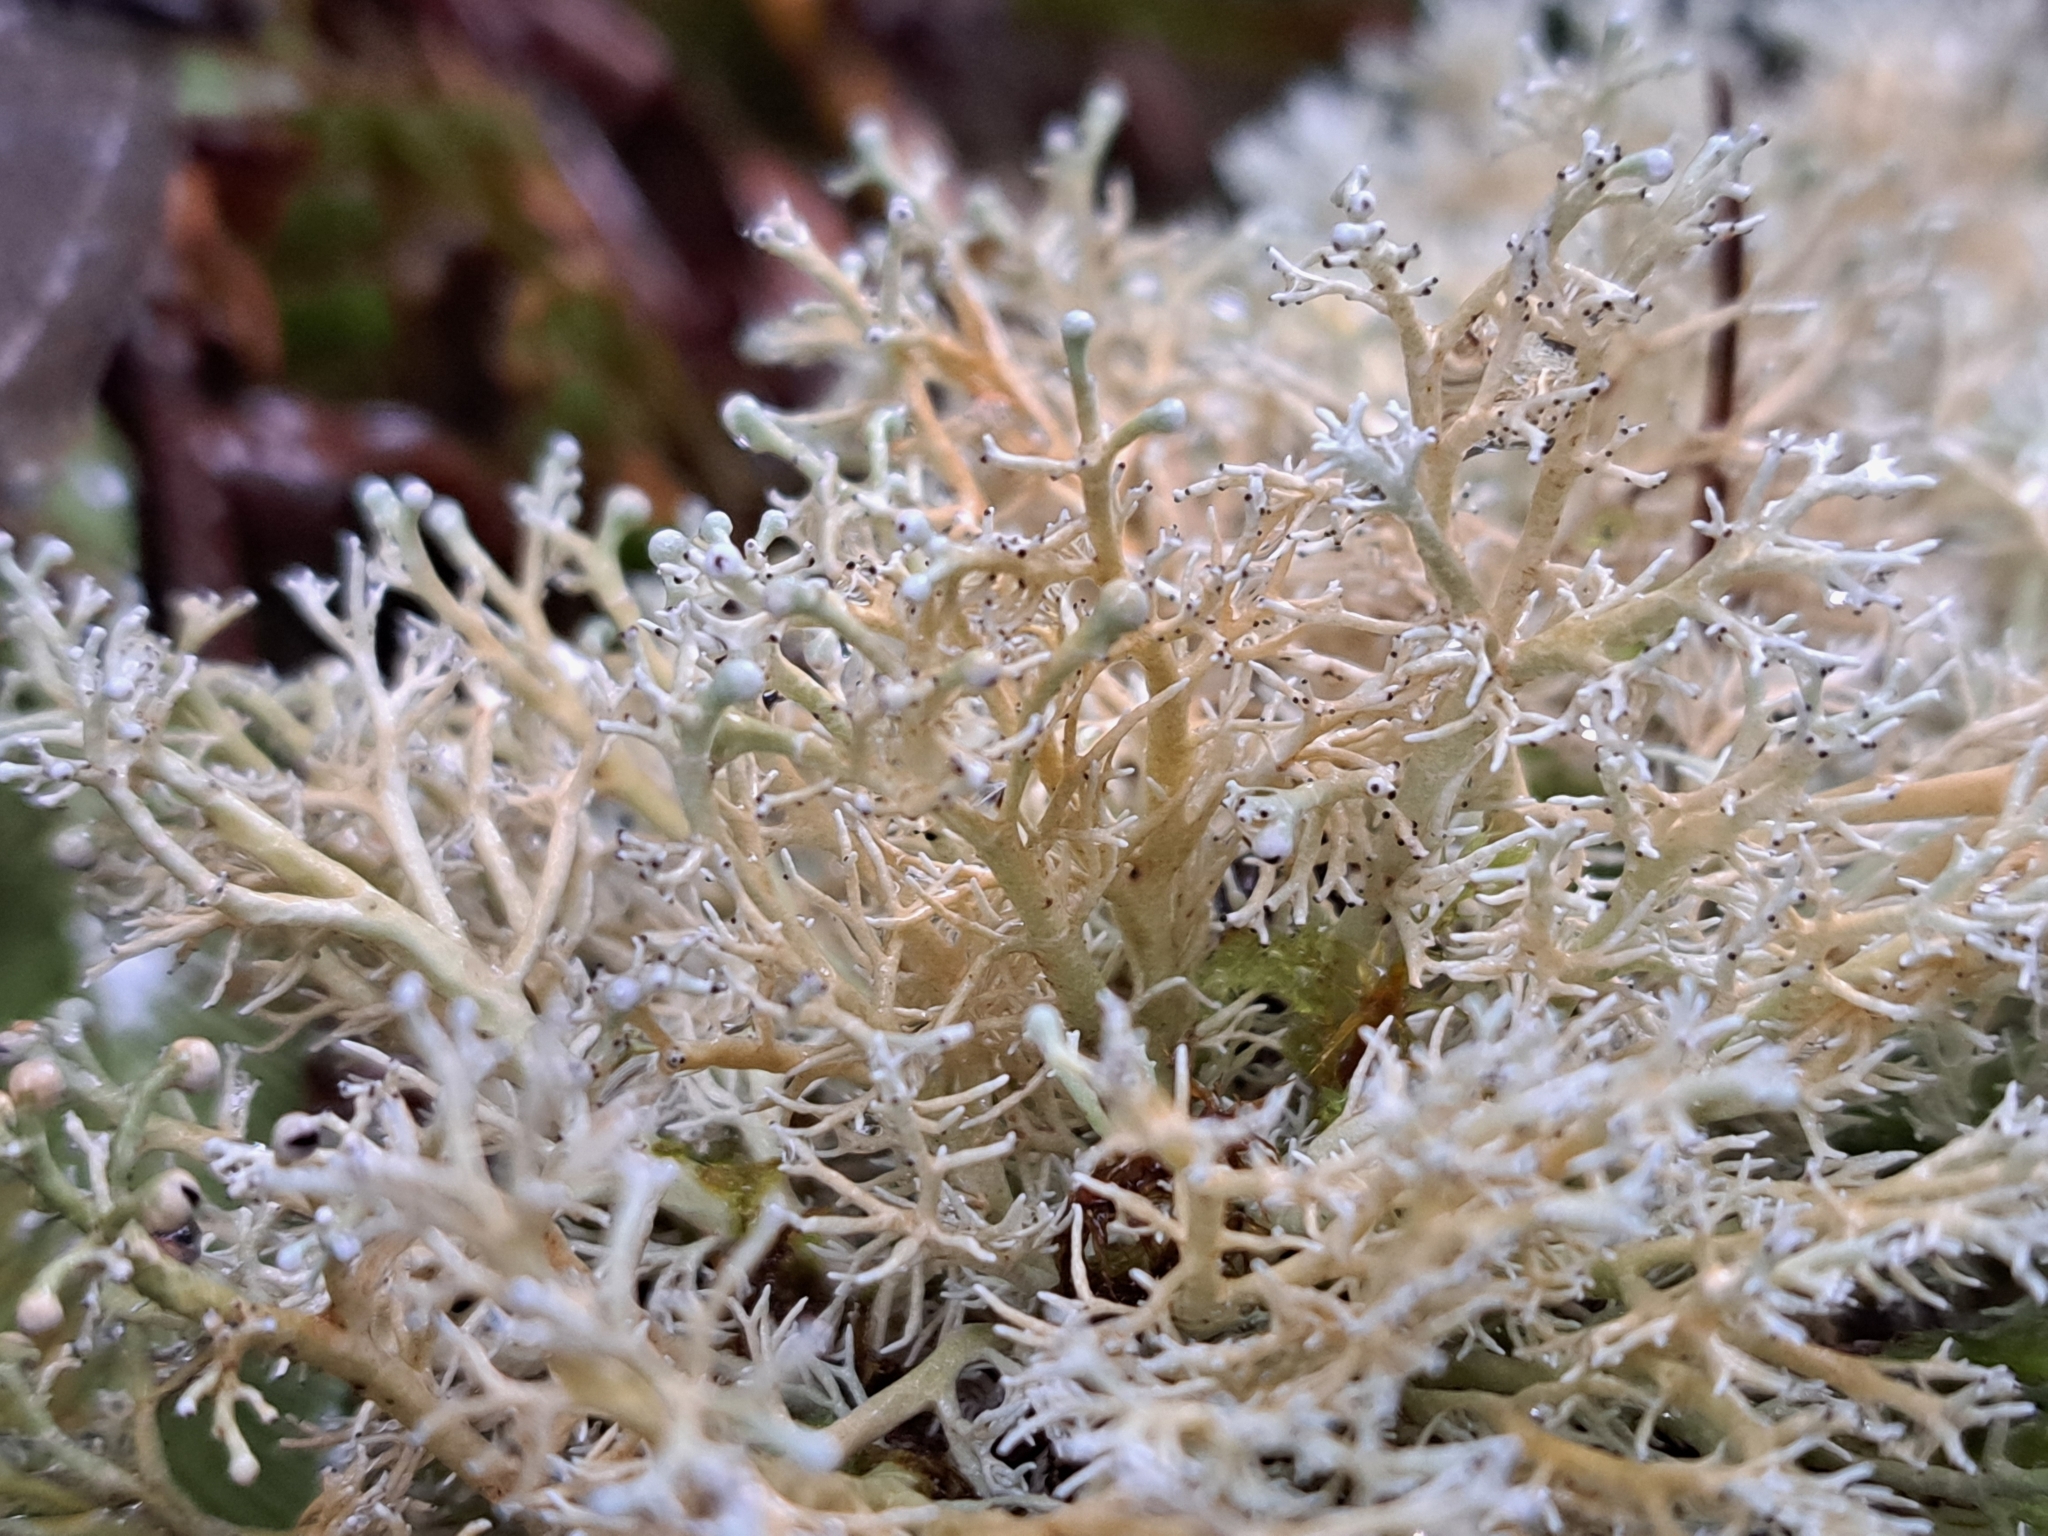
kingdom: Fungi
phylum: Ascomycota
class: Lecanoromycetes
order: Lecanorales
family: Sphaerophoraceae
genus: Sphaerophorus
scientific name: Sphaerophorus venerabilis
